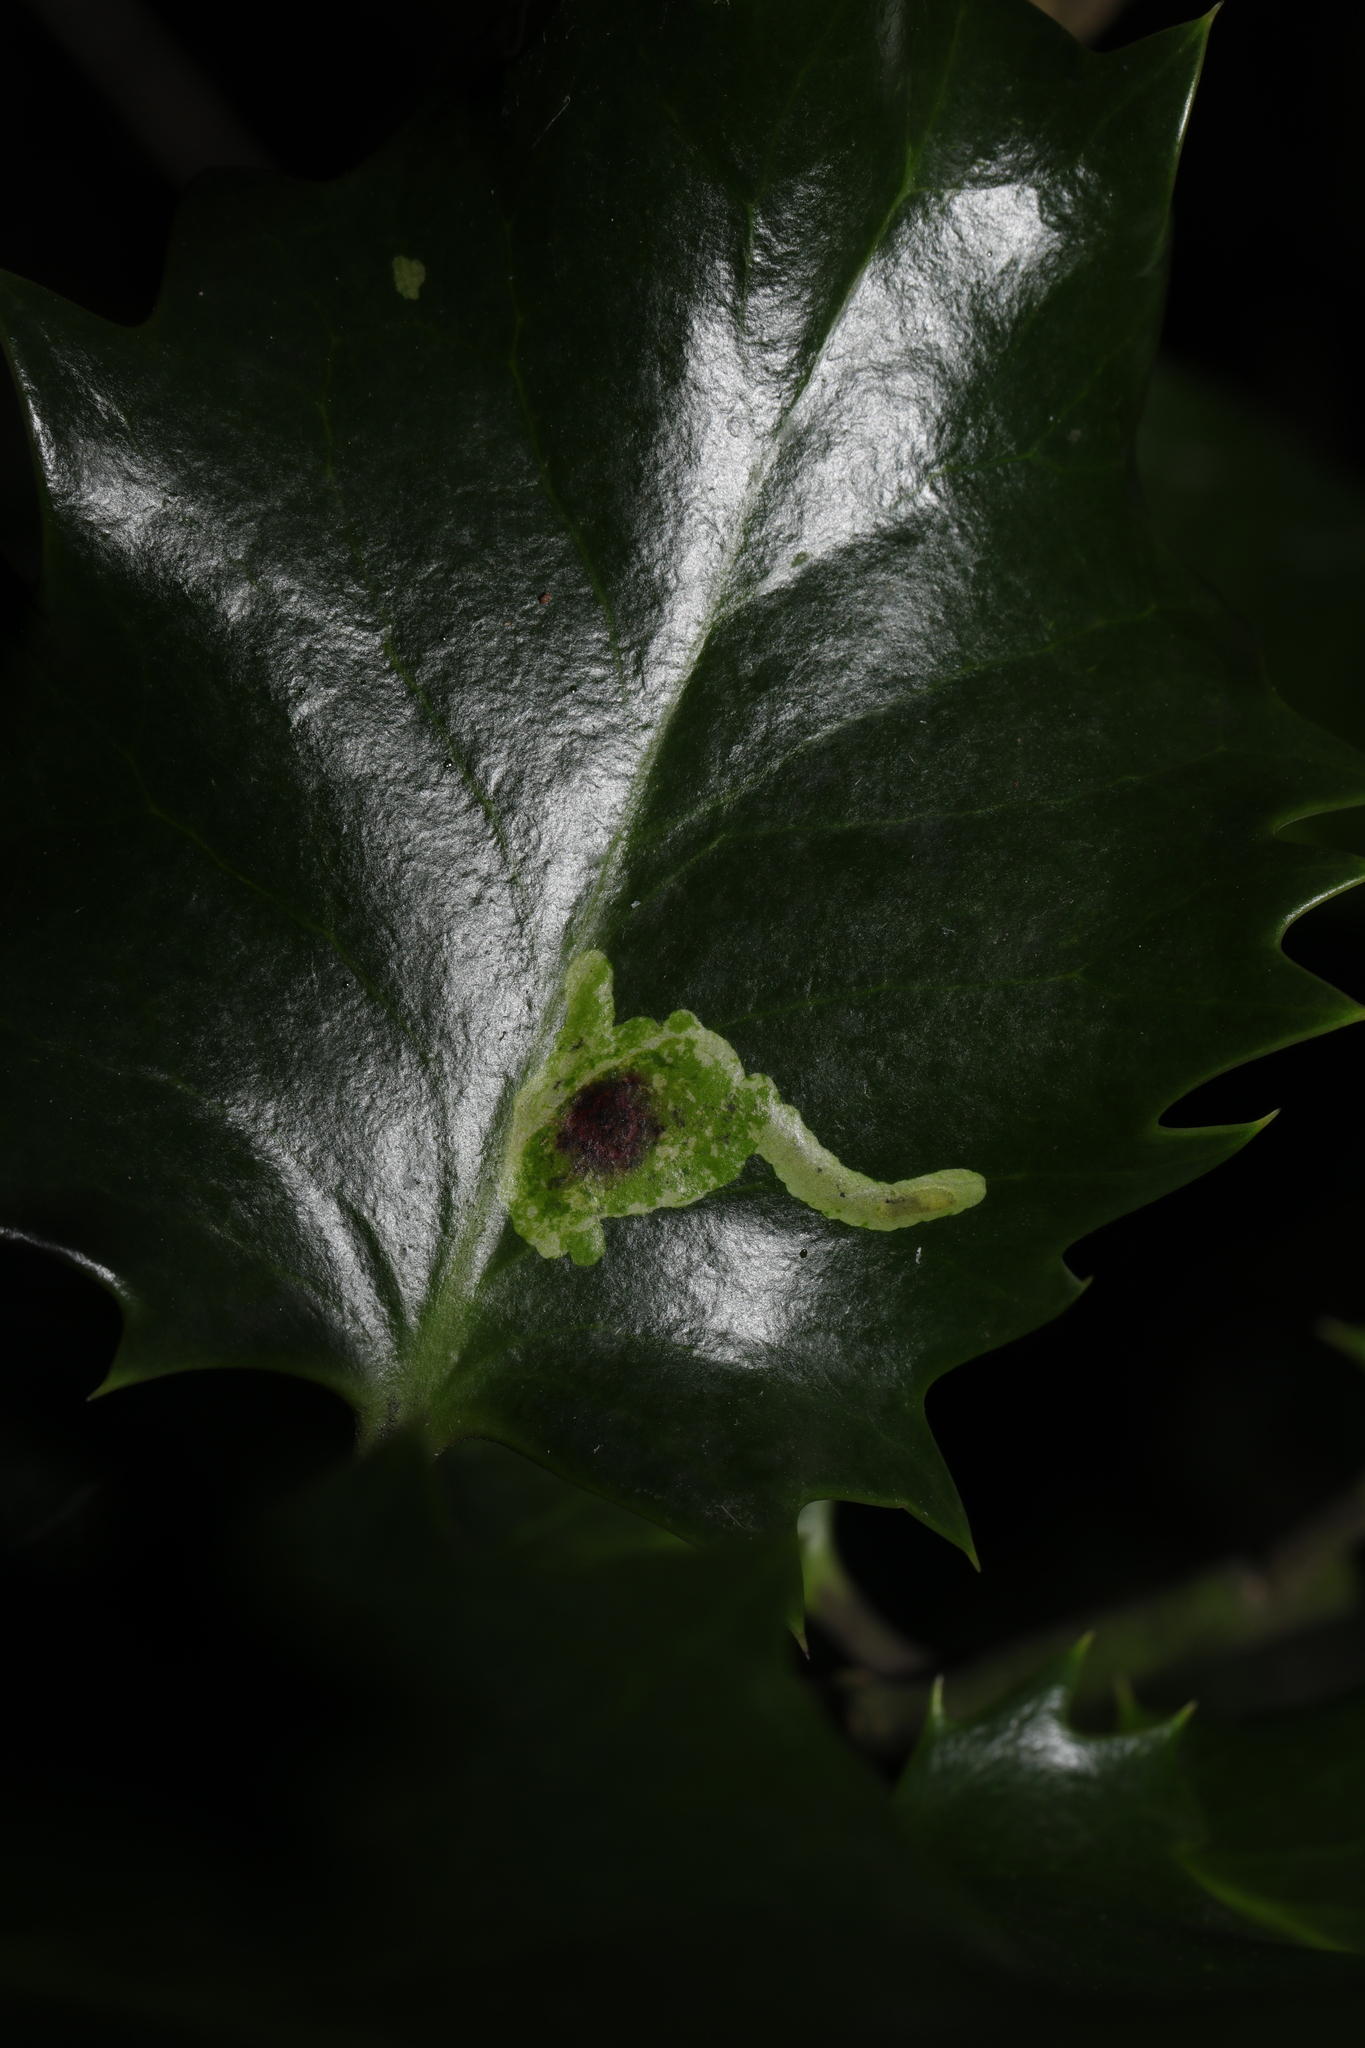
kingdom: Animalia
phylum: Arthropoda
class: Insecta
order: Diptera
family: Agromyzidae
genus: Phytomyza
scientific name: Phytomyza ilicis
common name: Holly leafminer
